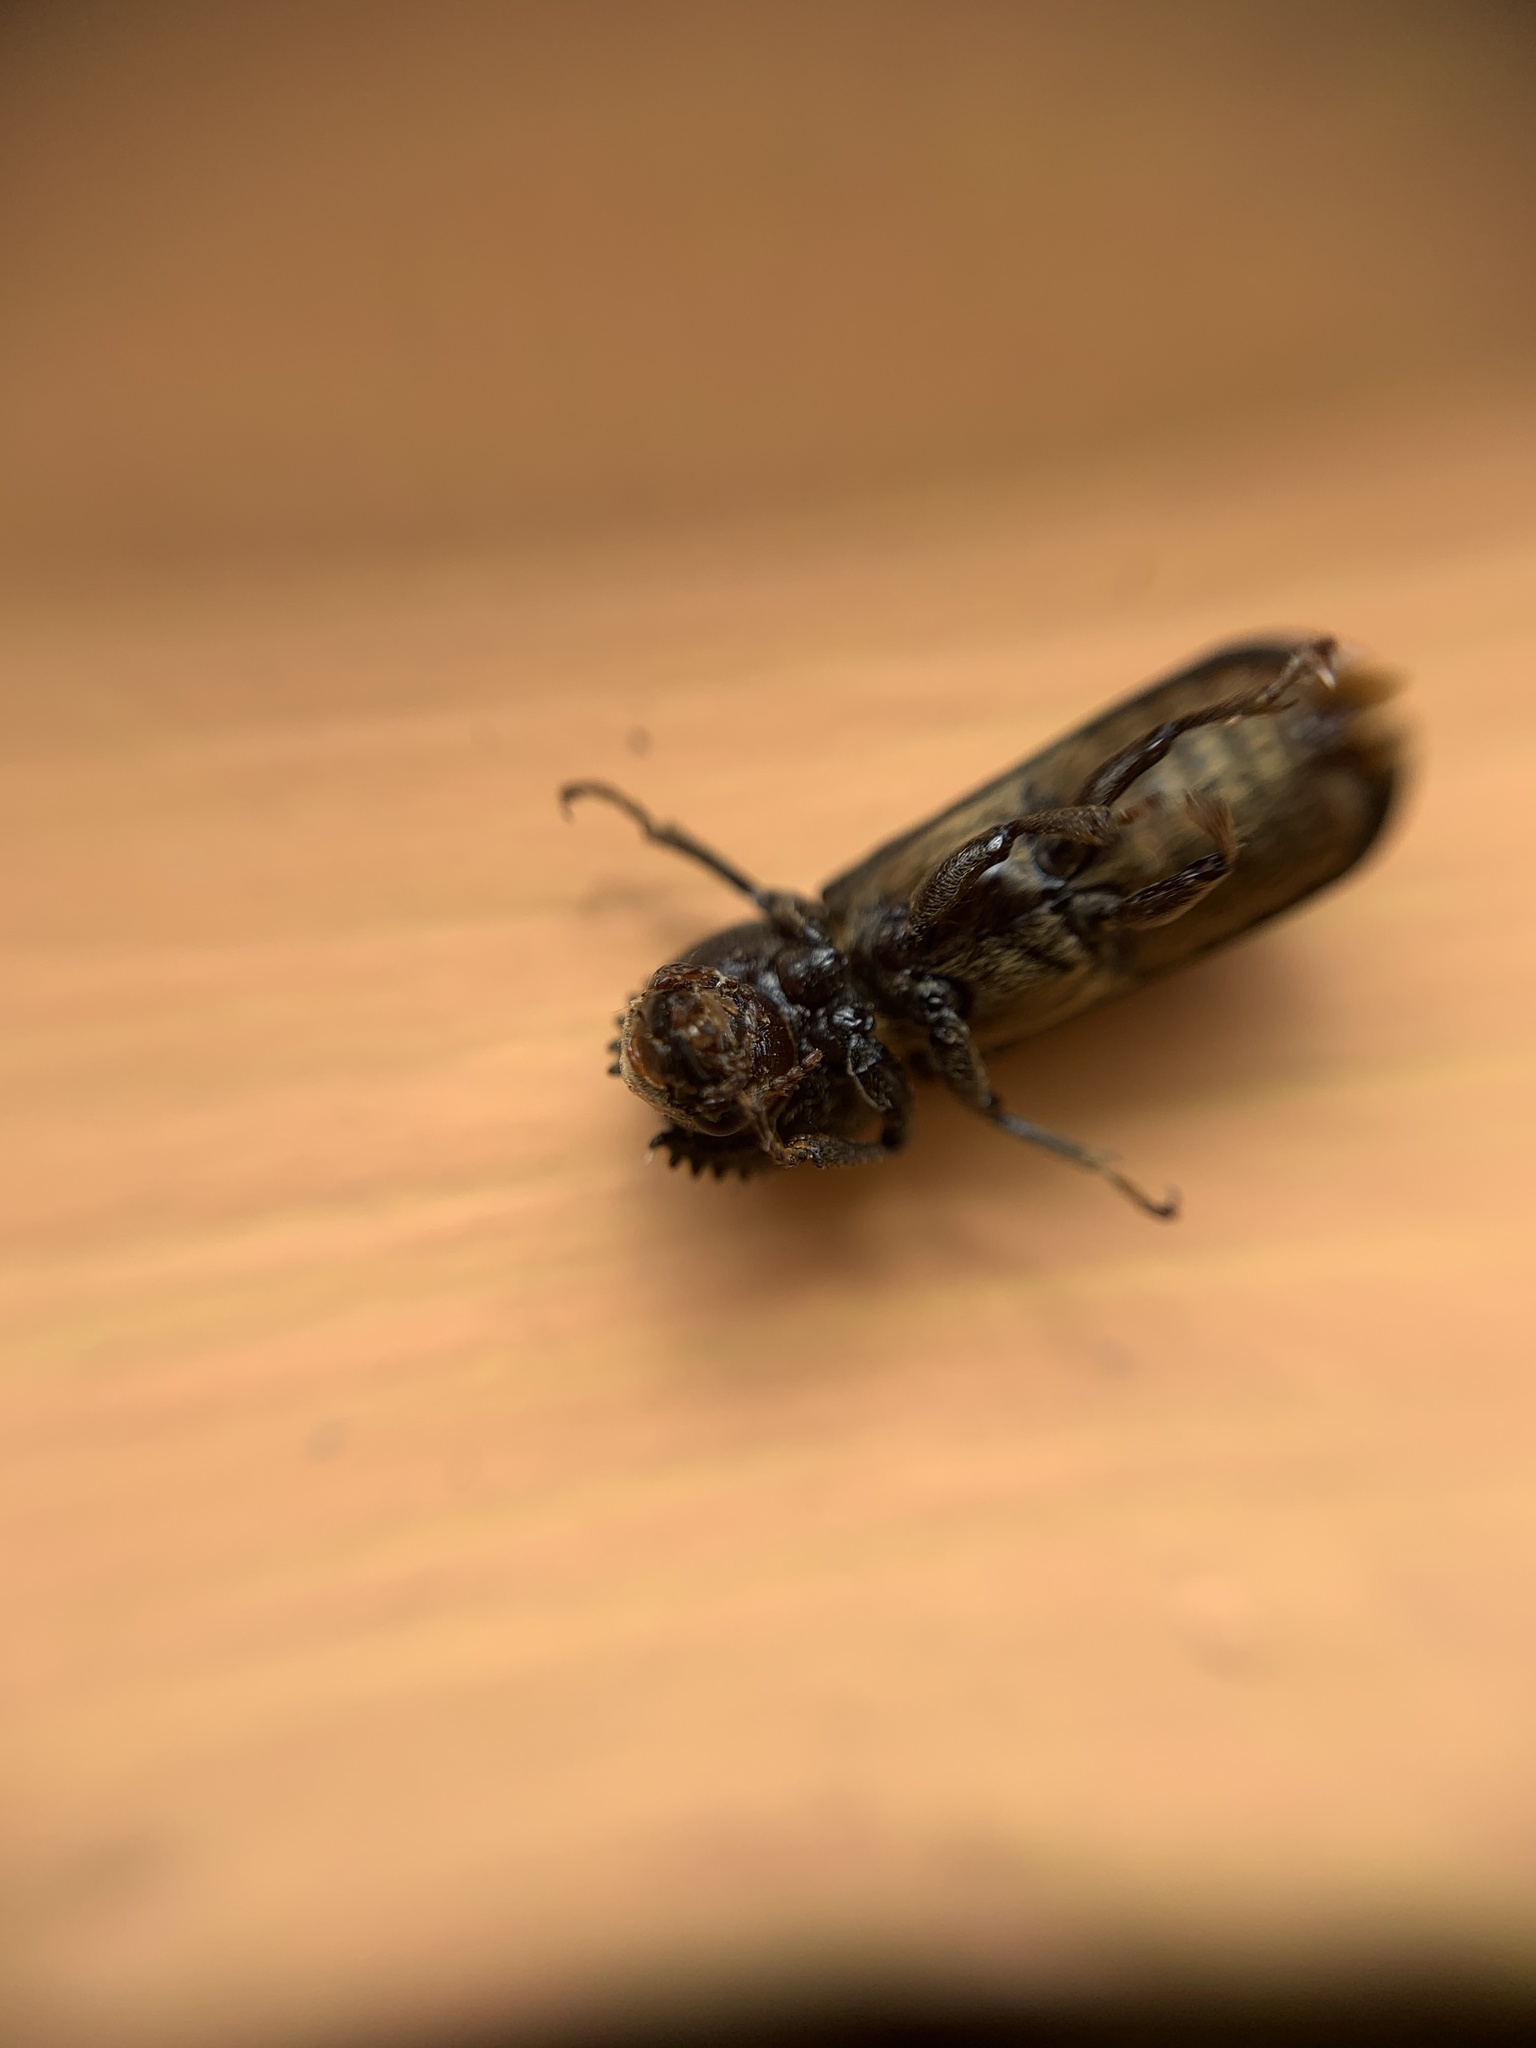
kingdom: Animalia
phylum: Arthropoda
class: Insecta
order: Coleoptera
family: Bostrichidae
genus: Amphicerus
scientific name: Amphicerus galapaganus
